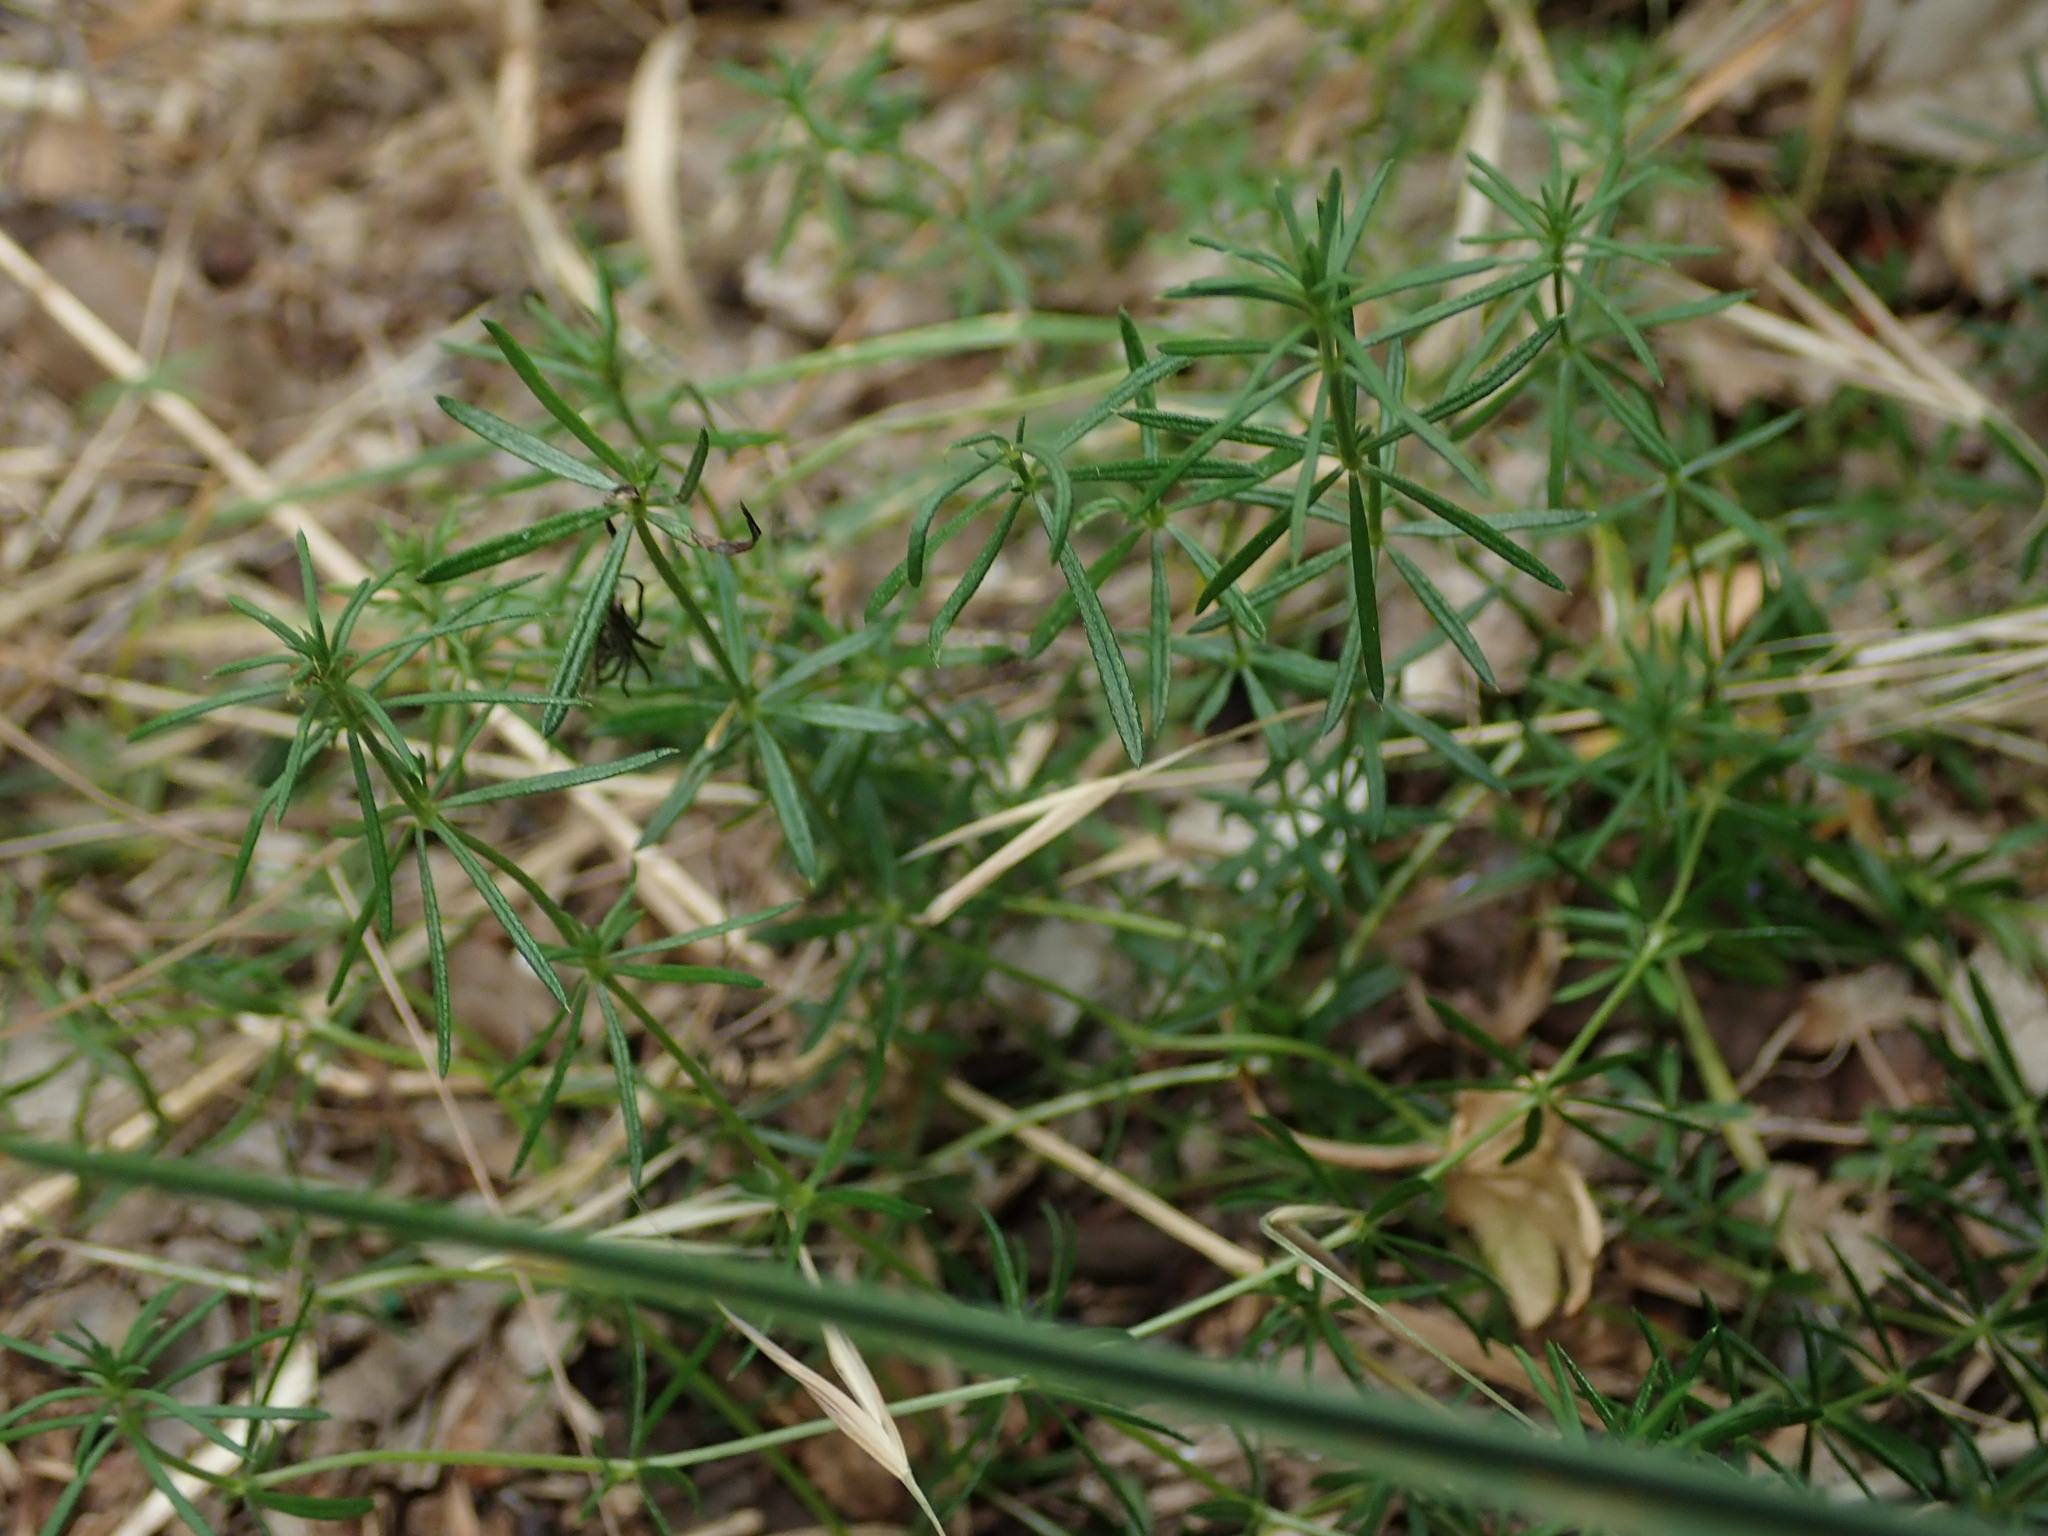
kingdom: Plantae
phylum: Tracheophyta
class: Magnoliopsida
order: Gentianales
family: Rubiaceae
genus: Galium
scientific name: Galium verum
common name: Lady's bedstraw
